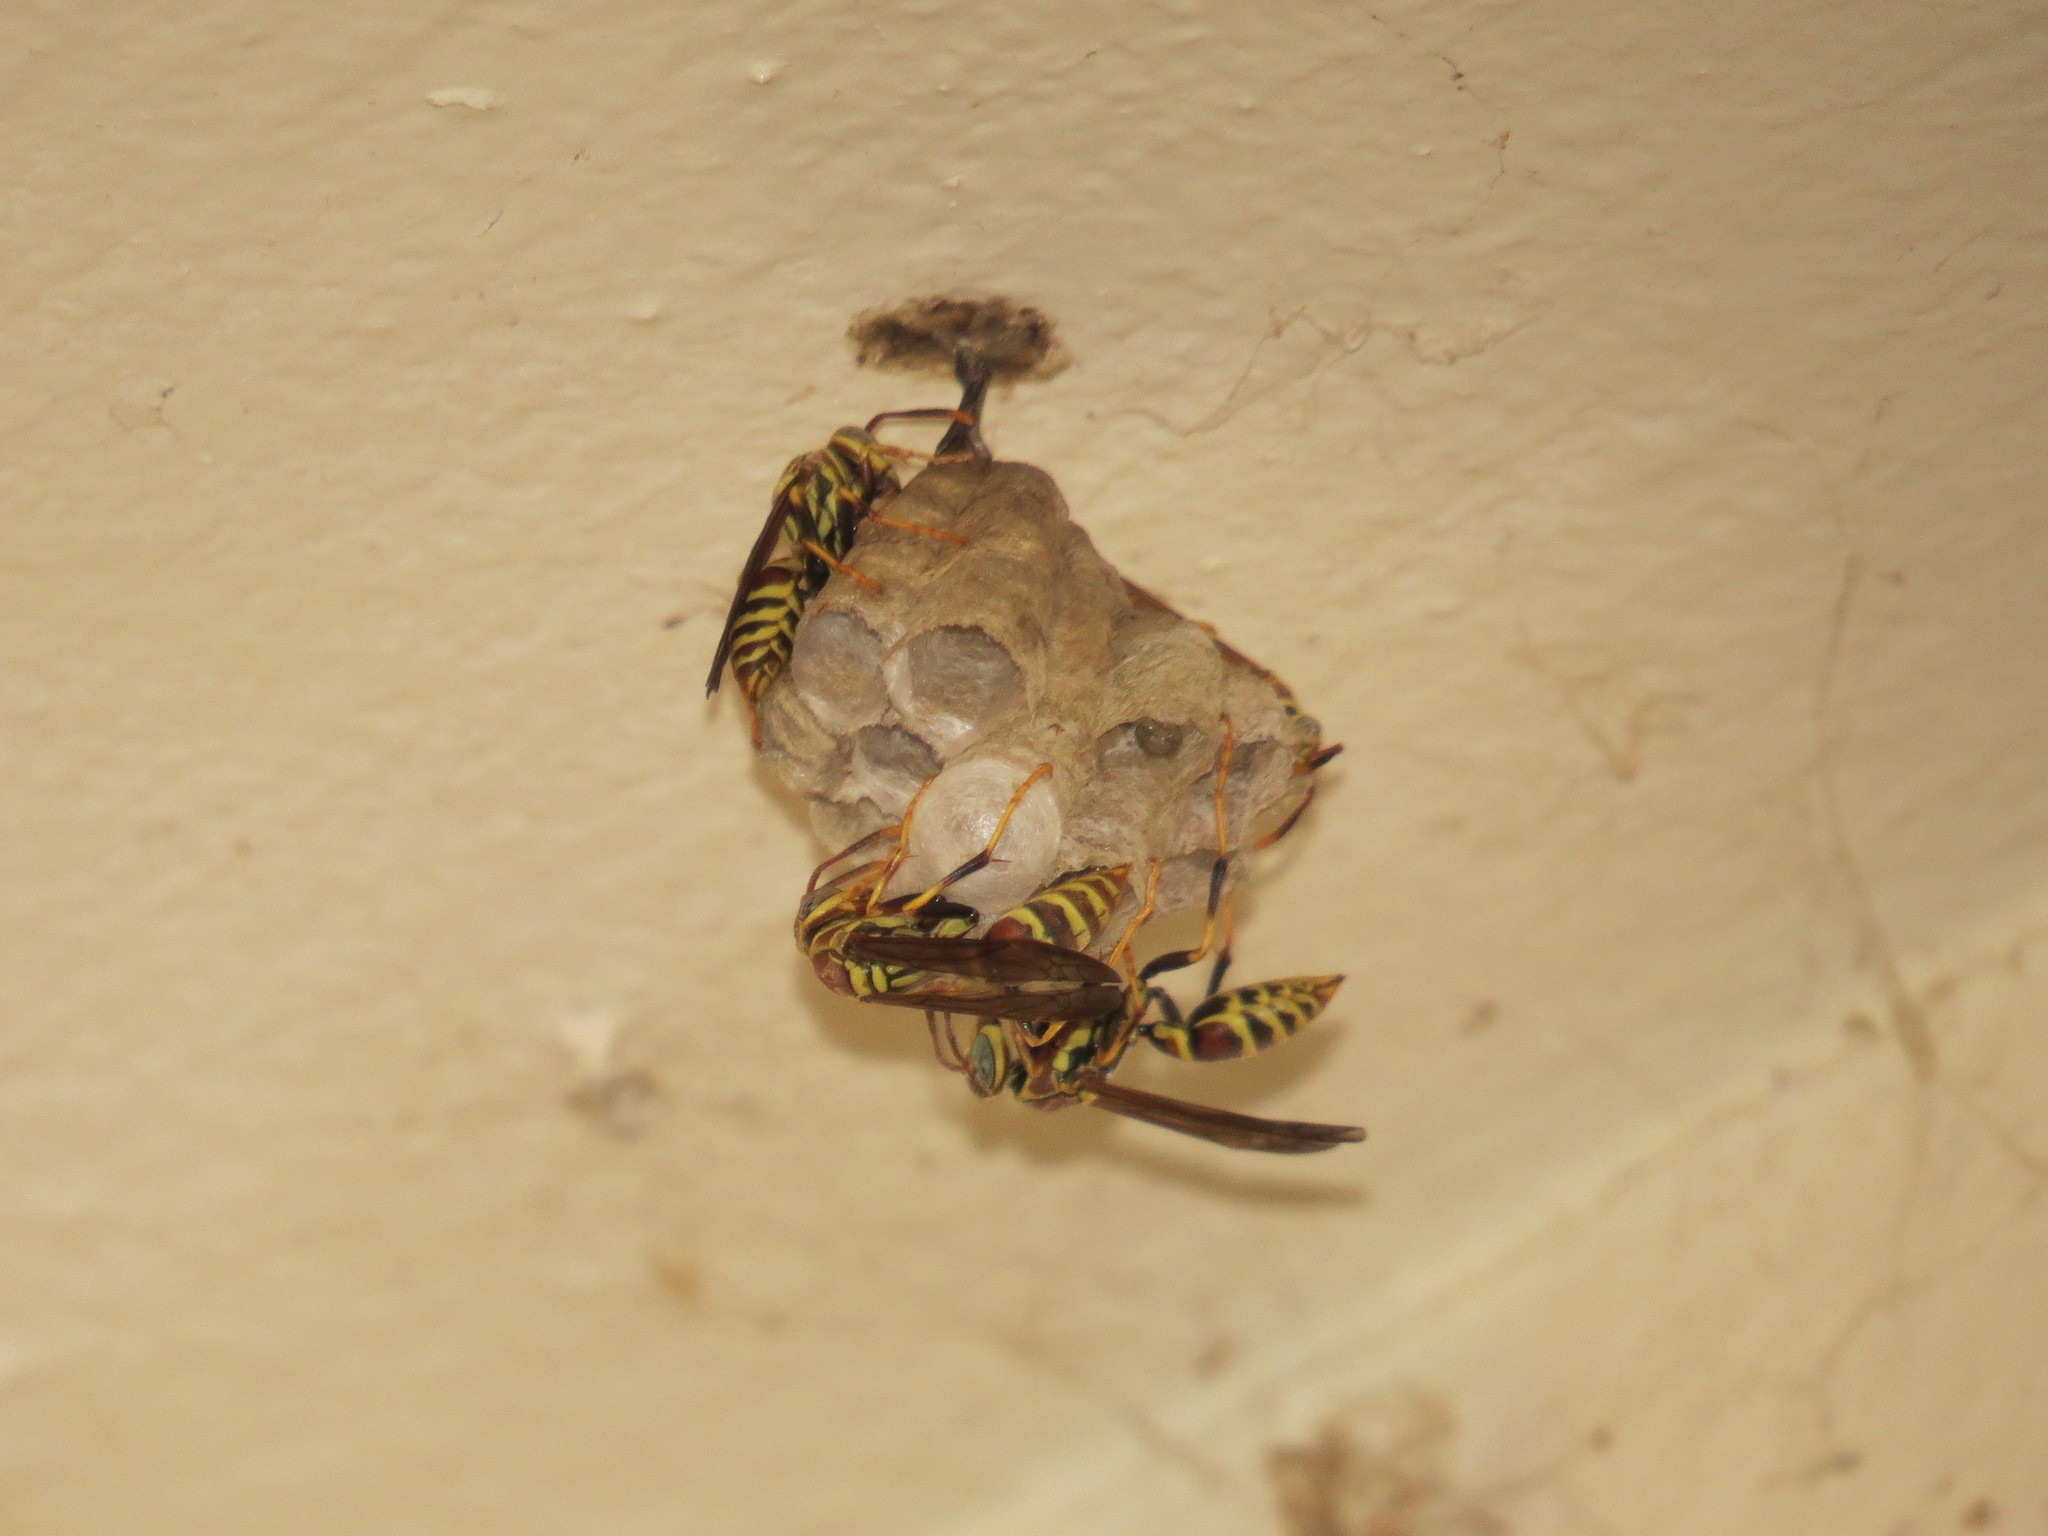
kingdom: Animalia
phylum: Arthropoda
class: Insecta
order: Hymenoptera
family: Eumenidae
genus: Polistes
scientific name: Polistes exclamans
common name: Paper wasp
